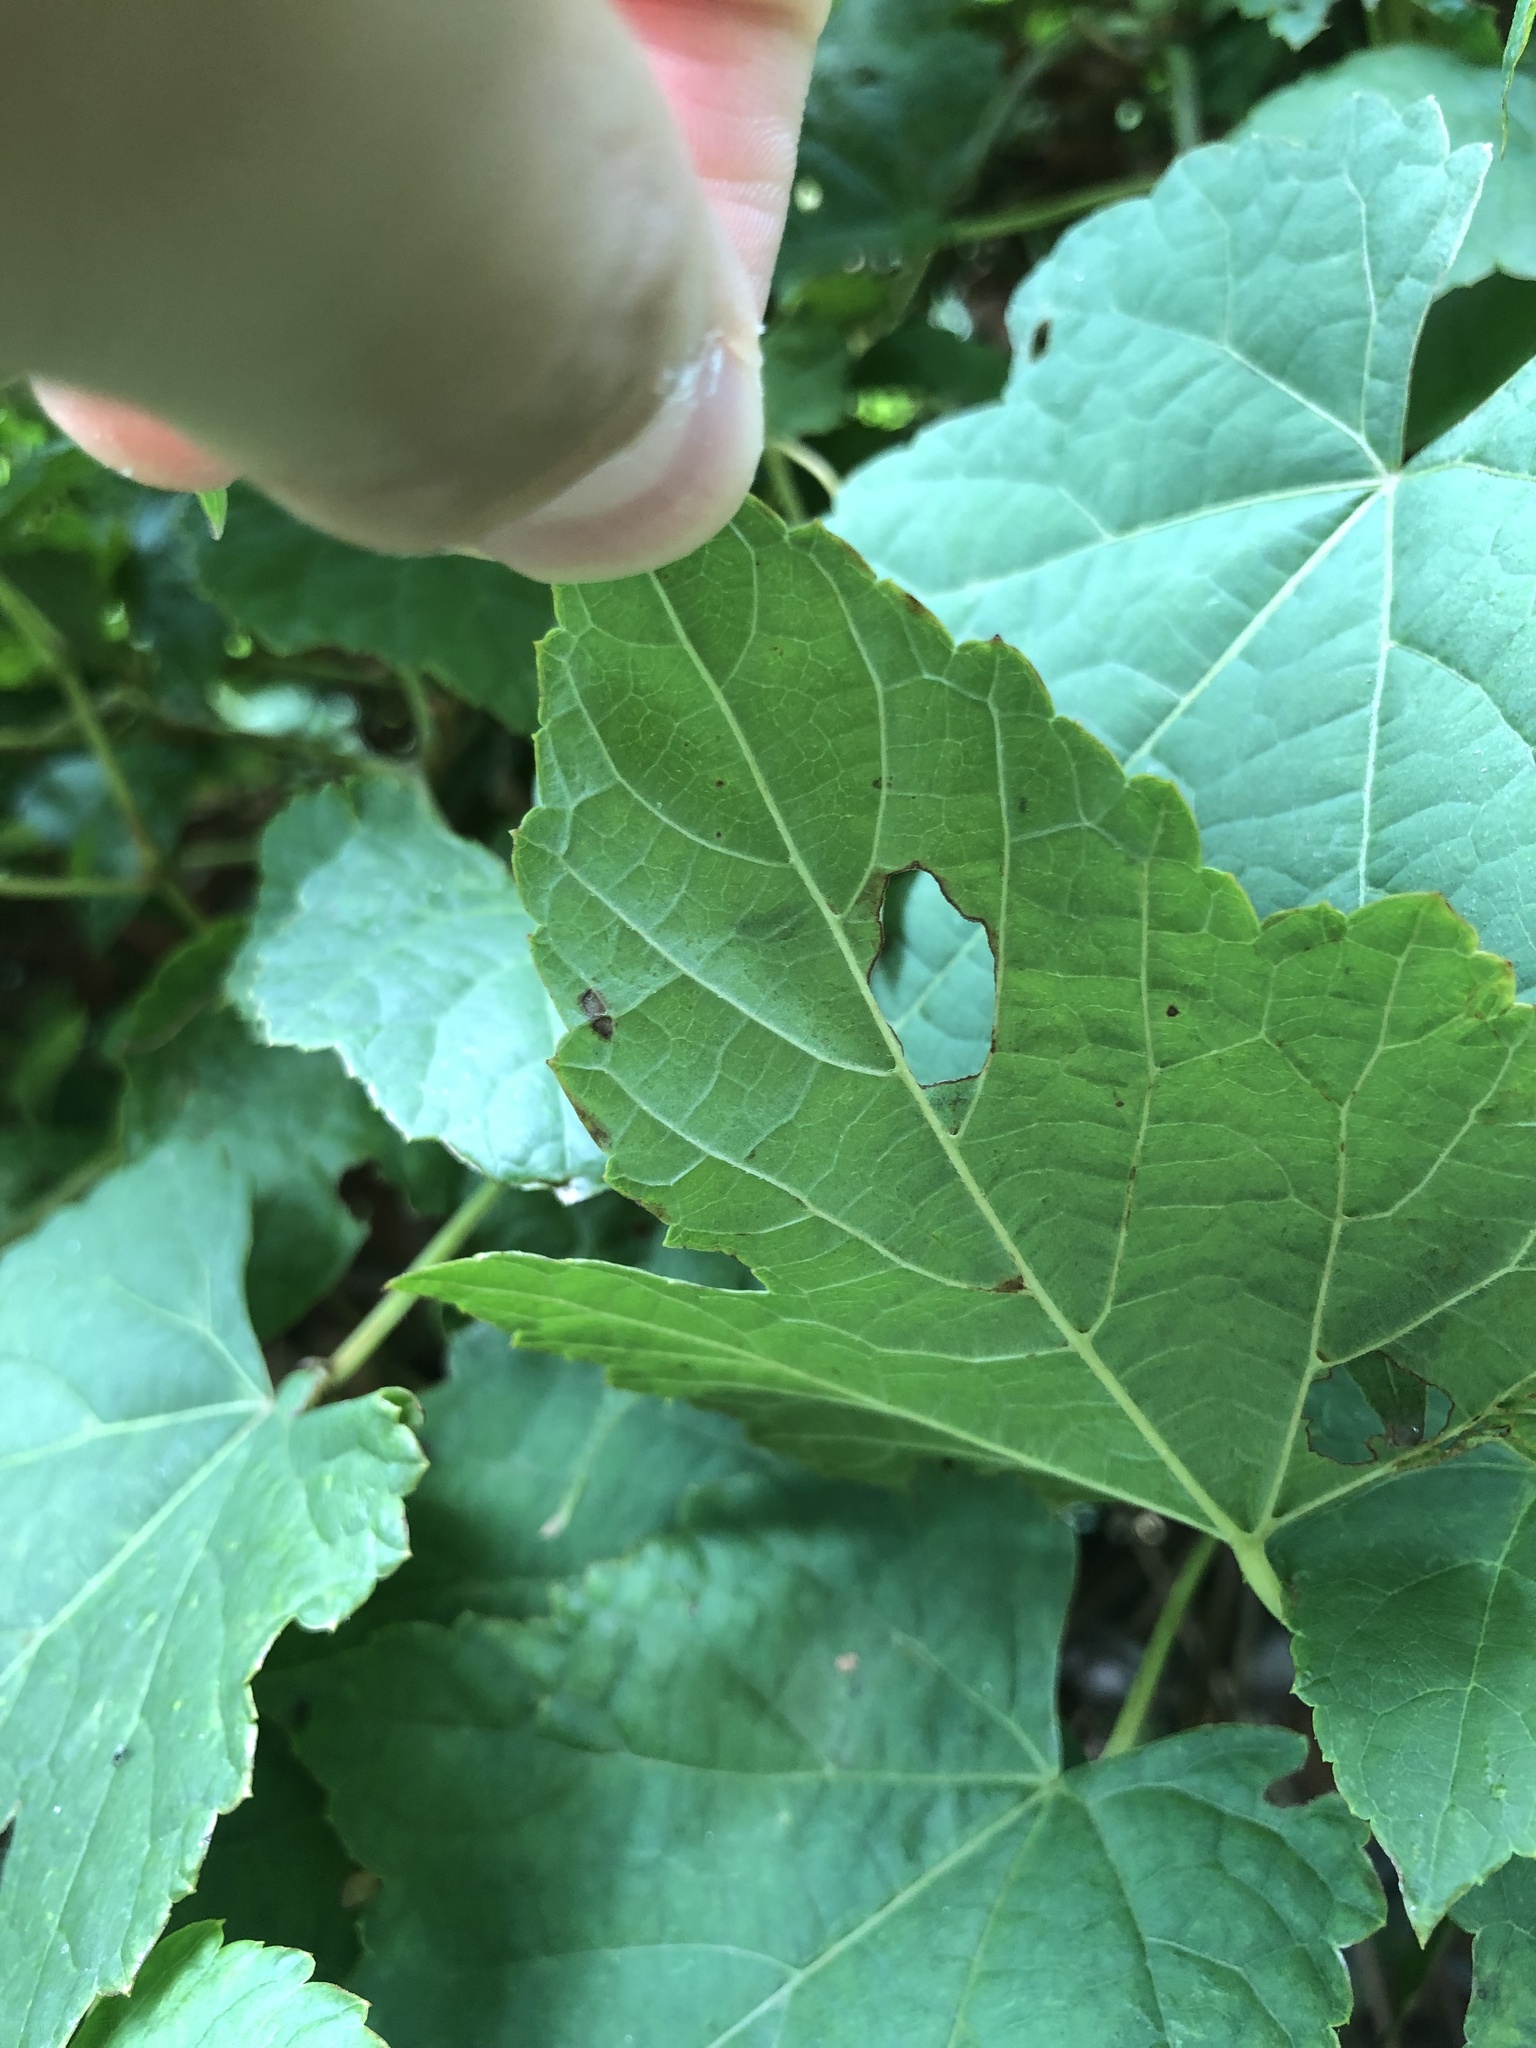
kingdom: Animalia
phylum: Arthropoda
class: Insecta
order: Lepidoptera
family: Gracillariidae
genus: Phyllocnistis
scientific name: Phyllocnistis vitegenella
